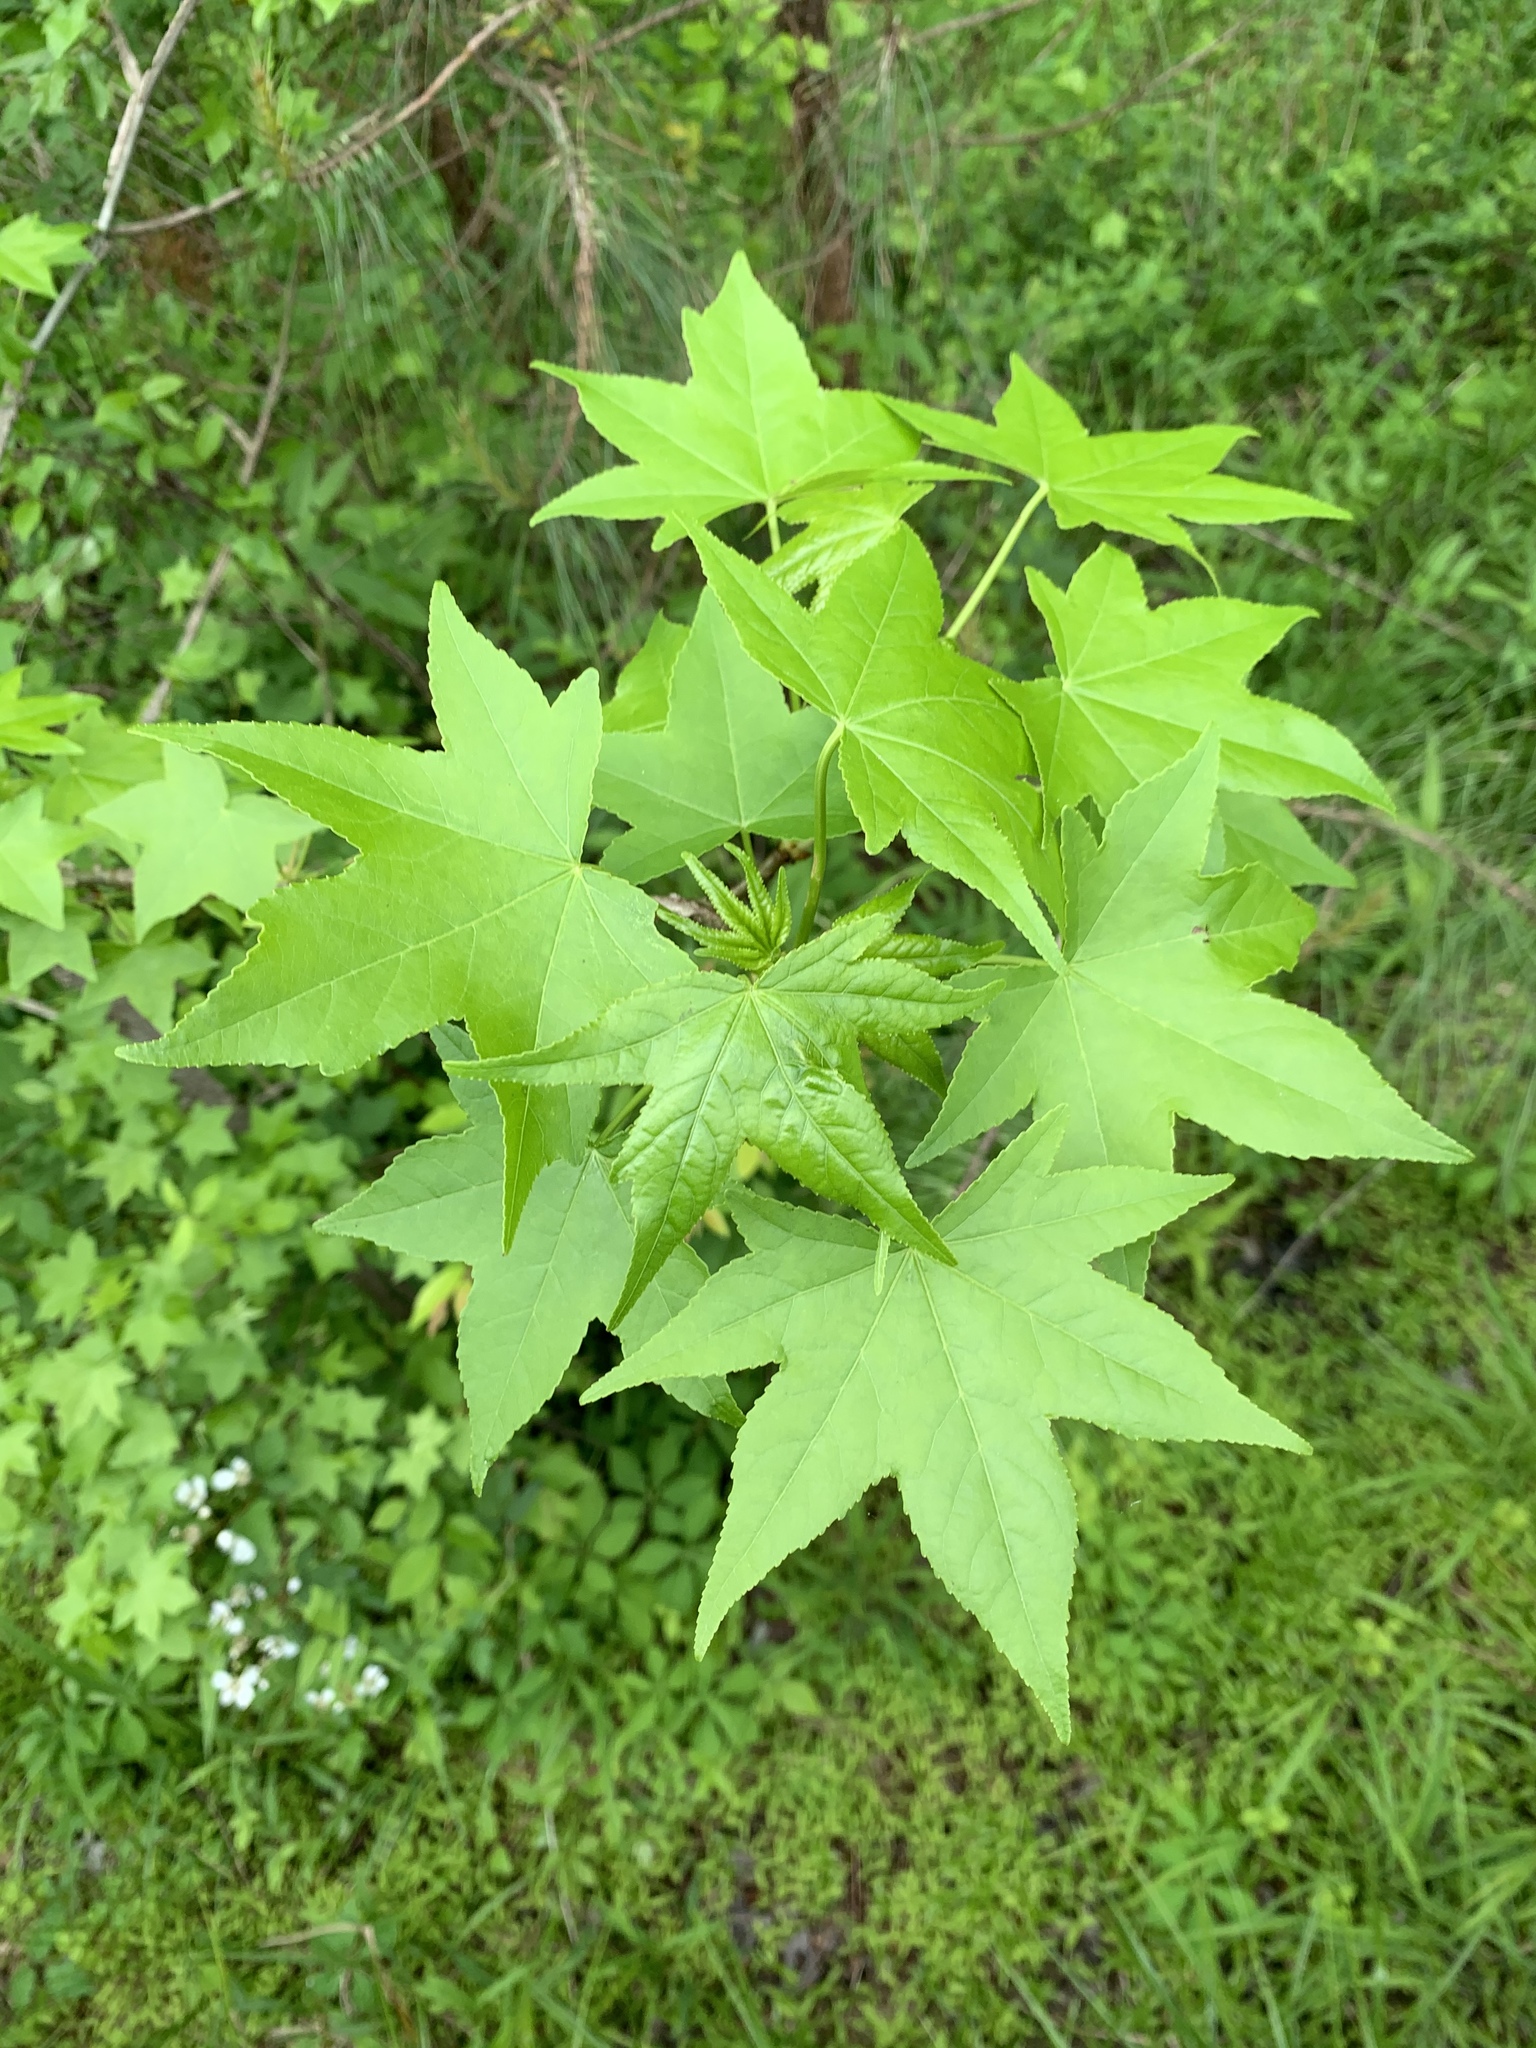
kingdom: Plantae
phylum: Tracheophyta
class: Magnoliopsida
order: Saxifragales
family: Altingiaceae
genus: Liquidambar
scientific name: Liquidambar styraciflua
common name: Sweet gum
